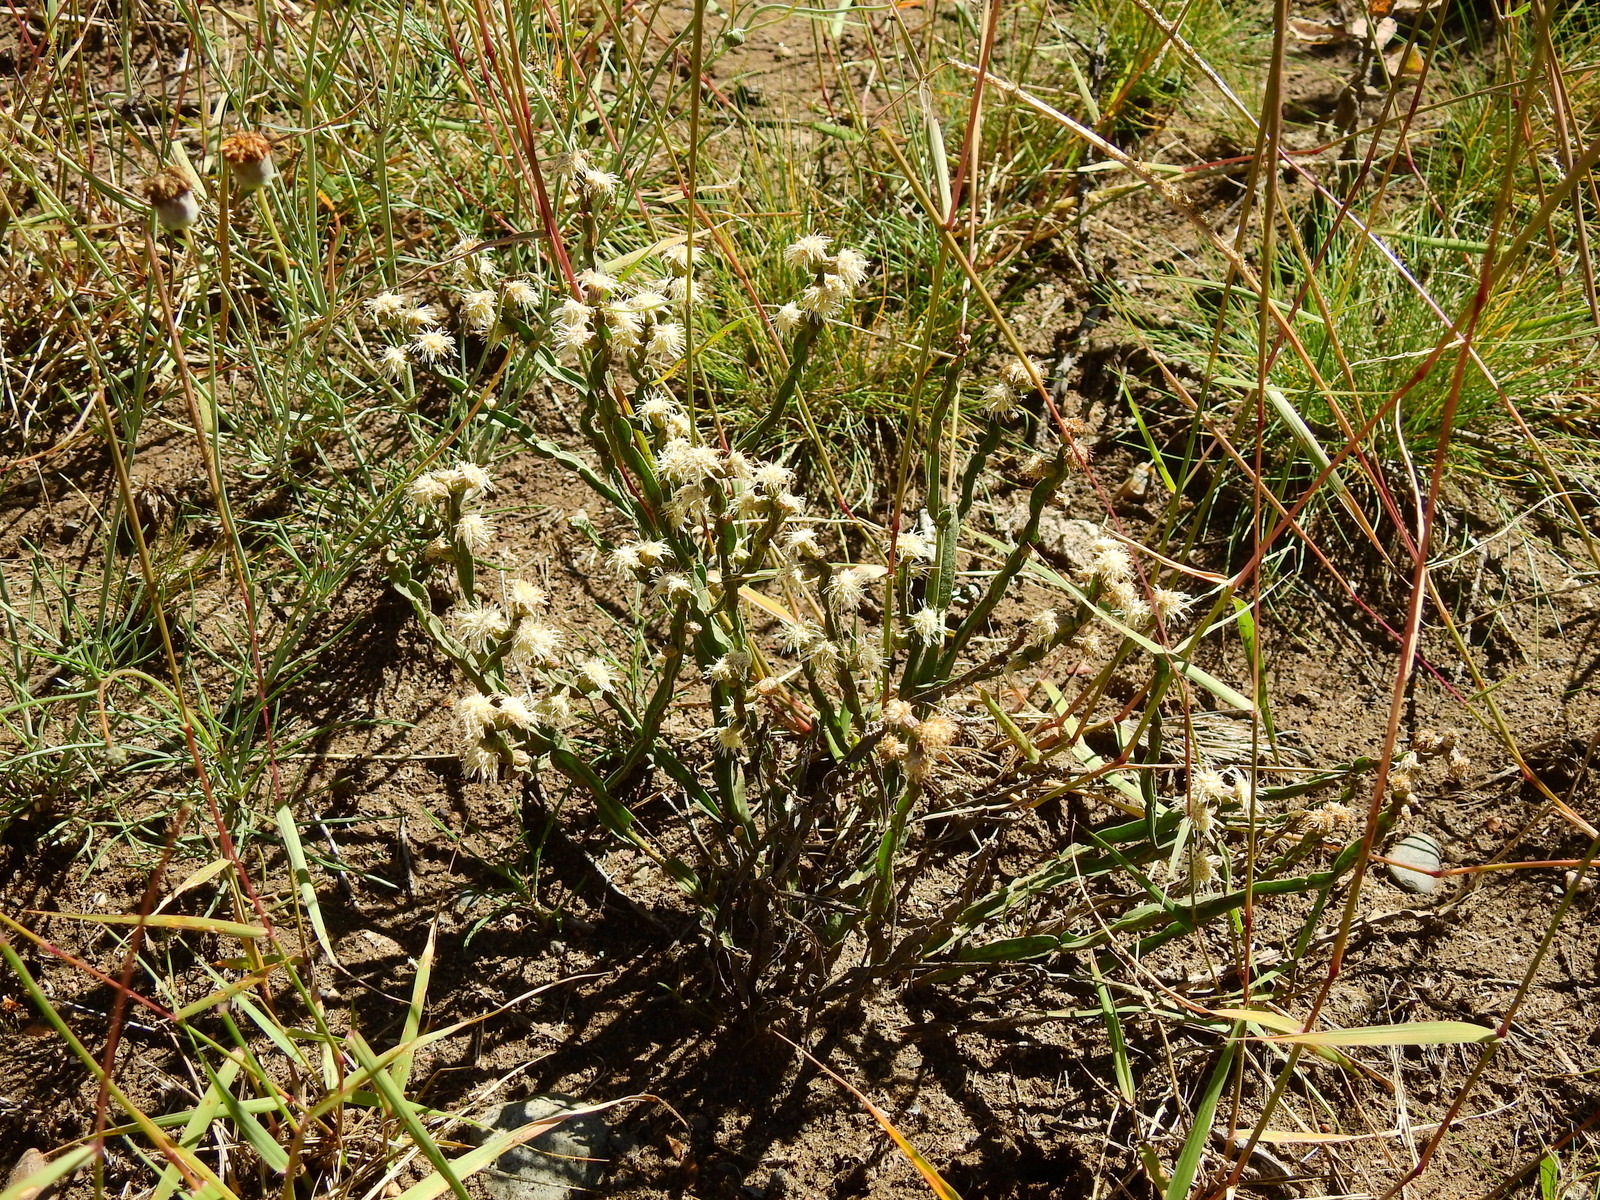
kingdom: Plantae
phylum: Tracheophyta
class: Magnoliopsida
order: Asterales
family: Asteraceae
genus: Baccharis
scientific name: Baccharis trimera
